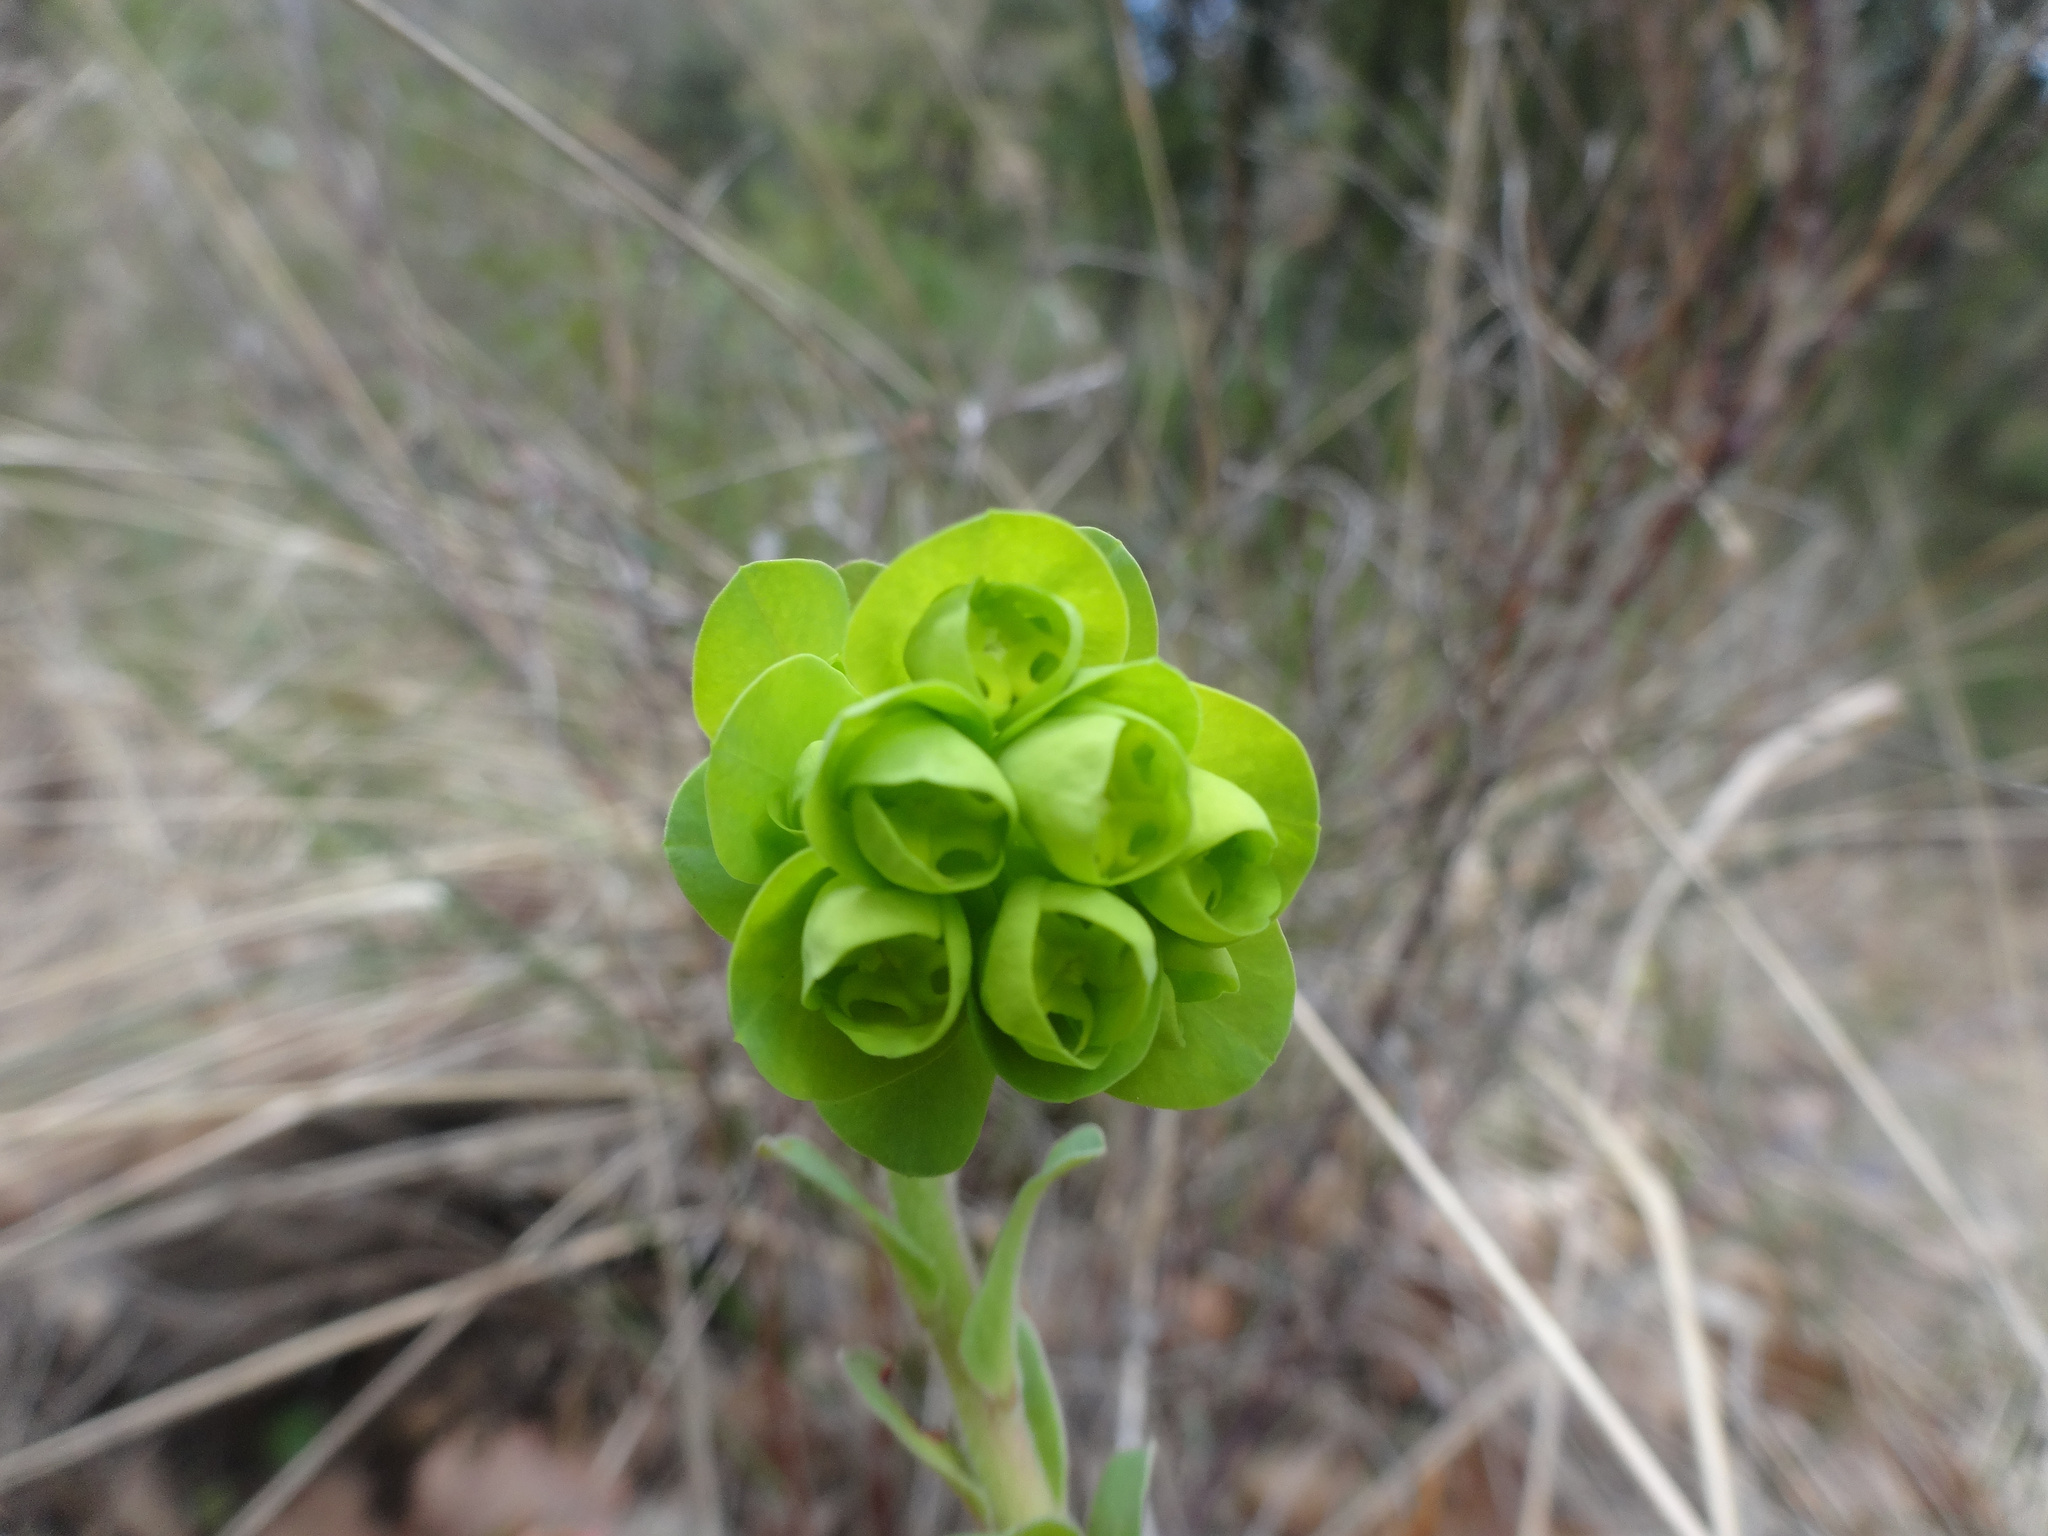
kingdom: Plantae
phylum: Tracheophyta
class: Magnoliopsida
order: Malpighiales
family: Euphorbiaceae
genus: Euphorbia
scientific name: Euphorbia amygdaloides
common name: Wood spurge
